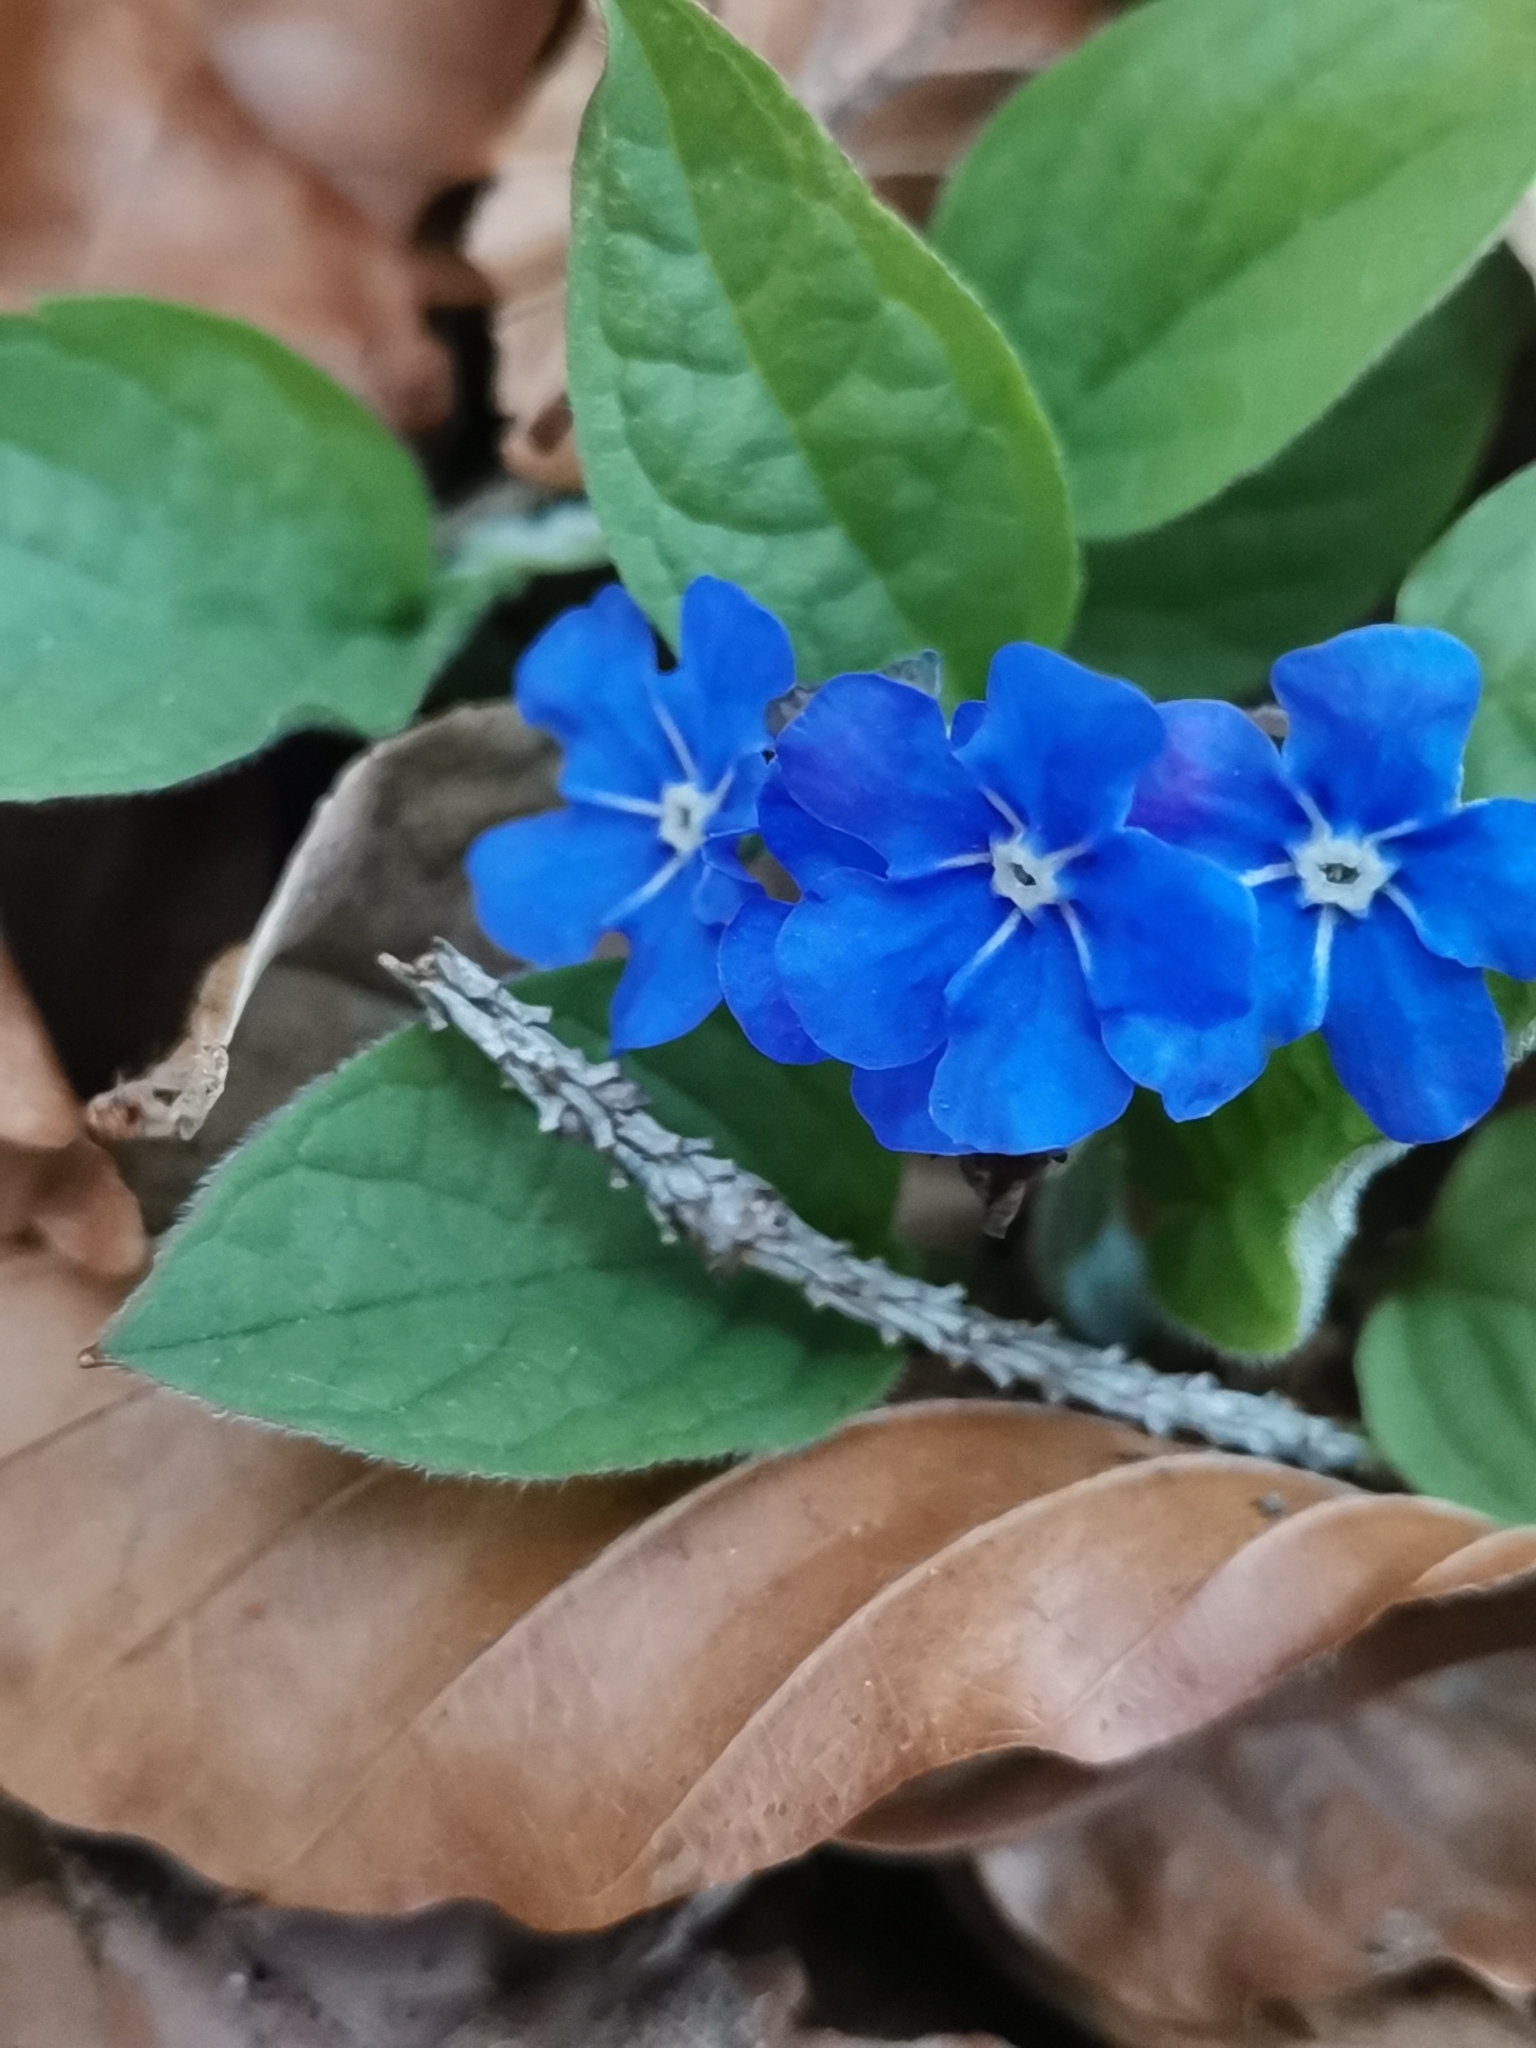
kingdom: Plantae
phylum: Tracheophyta
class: Magnoliopsida
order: Boraginales
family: Boraginaceae
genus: Omphalodes
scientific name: Omphalodes verna
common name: Blue-eyed-mary
